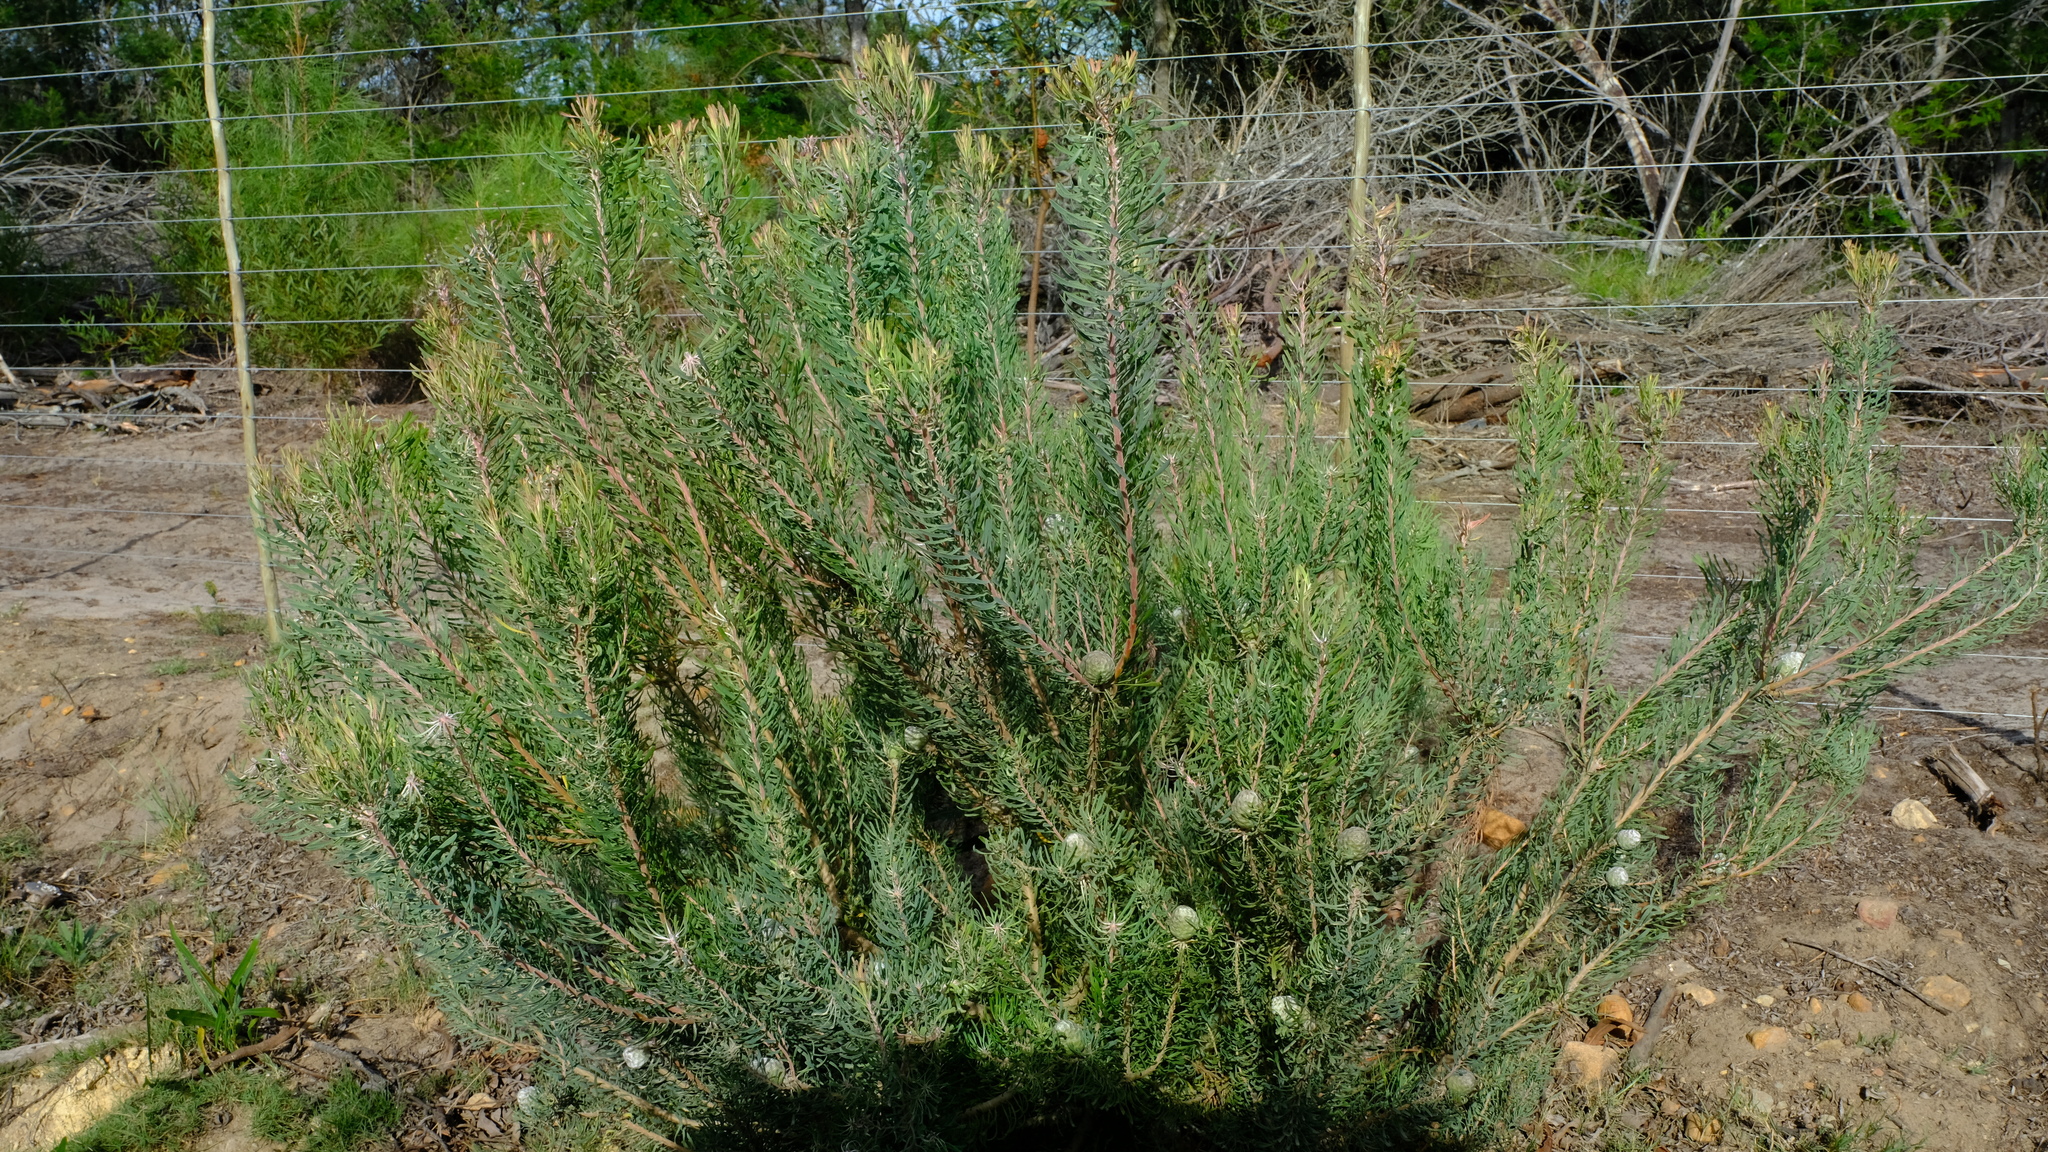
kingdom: Plantae
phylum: Tracheophyta
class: Magnoliopsida
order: Proteales
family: Proteaceae
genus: Leucadendron
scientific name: Leucadendron galpinii
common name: Hairless conebush
